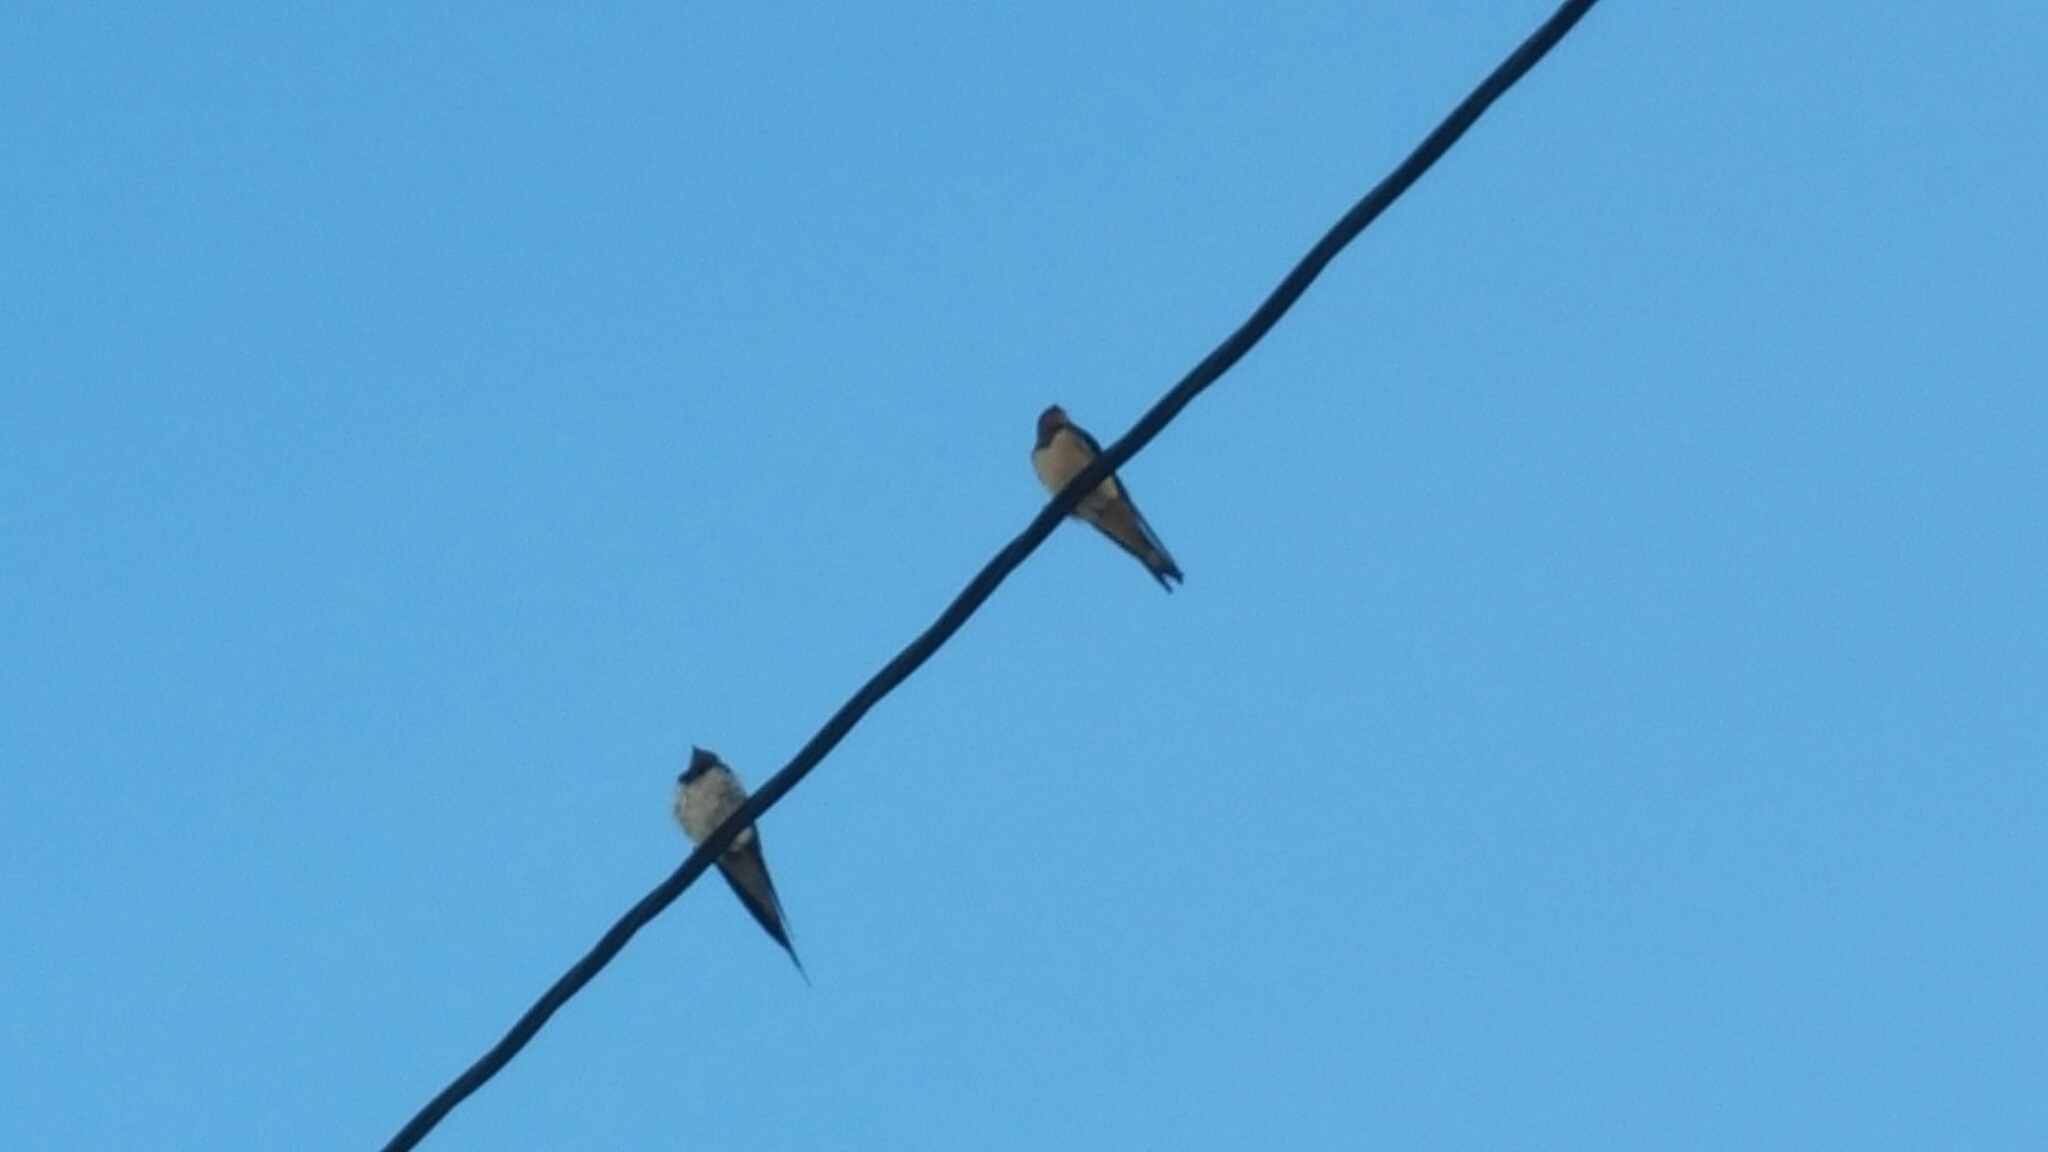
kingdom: Animalia
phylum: Chordata
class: Aves
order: Passeriformes
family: Hirundinidae
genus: Hirundo
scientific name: Hirundo rustica
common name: Barn swallow
